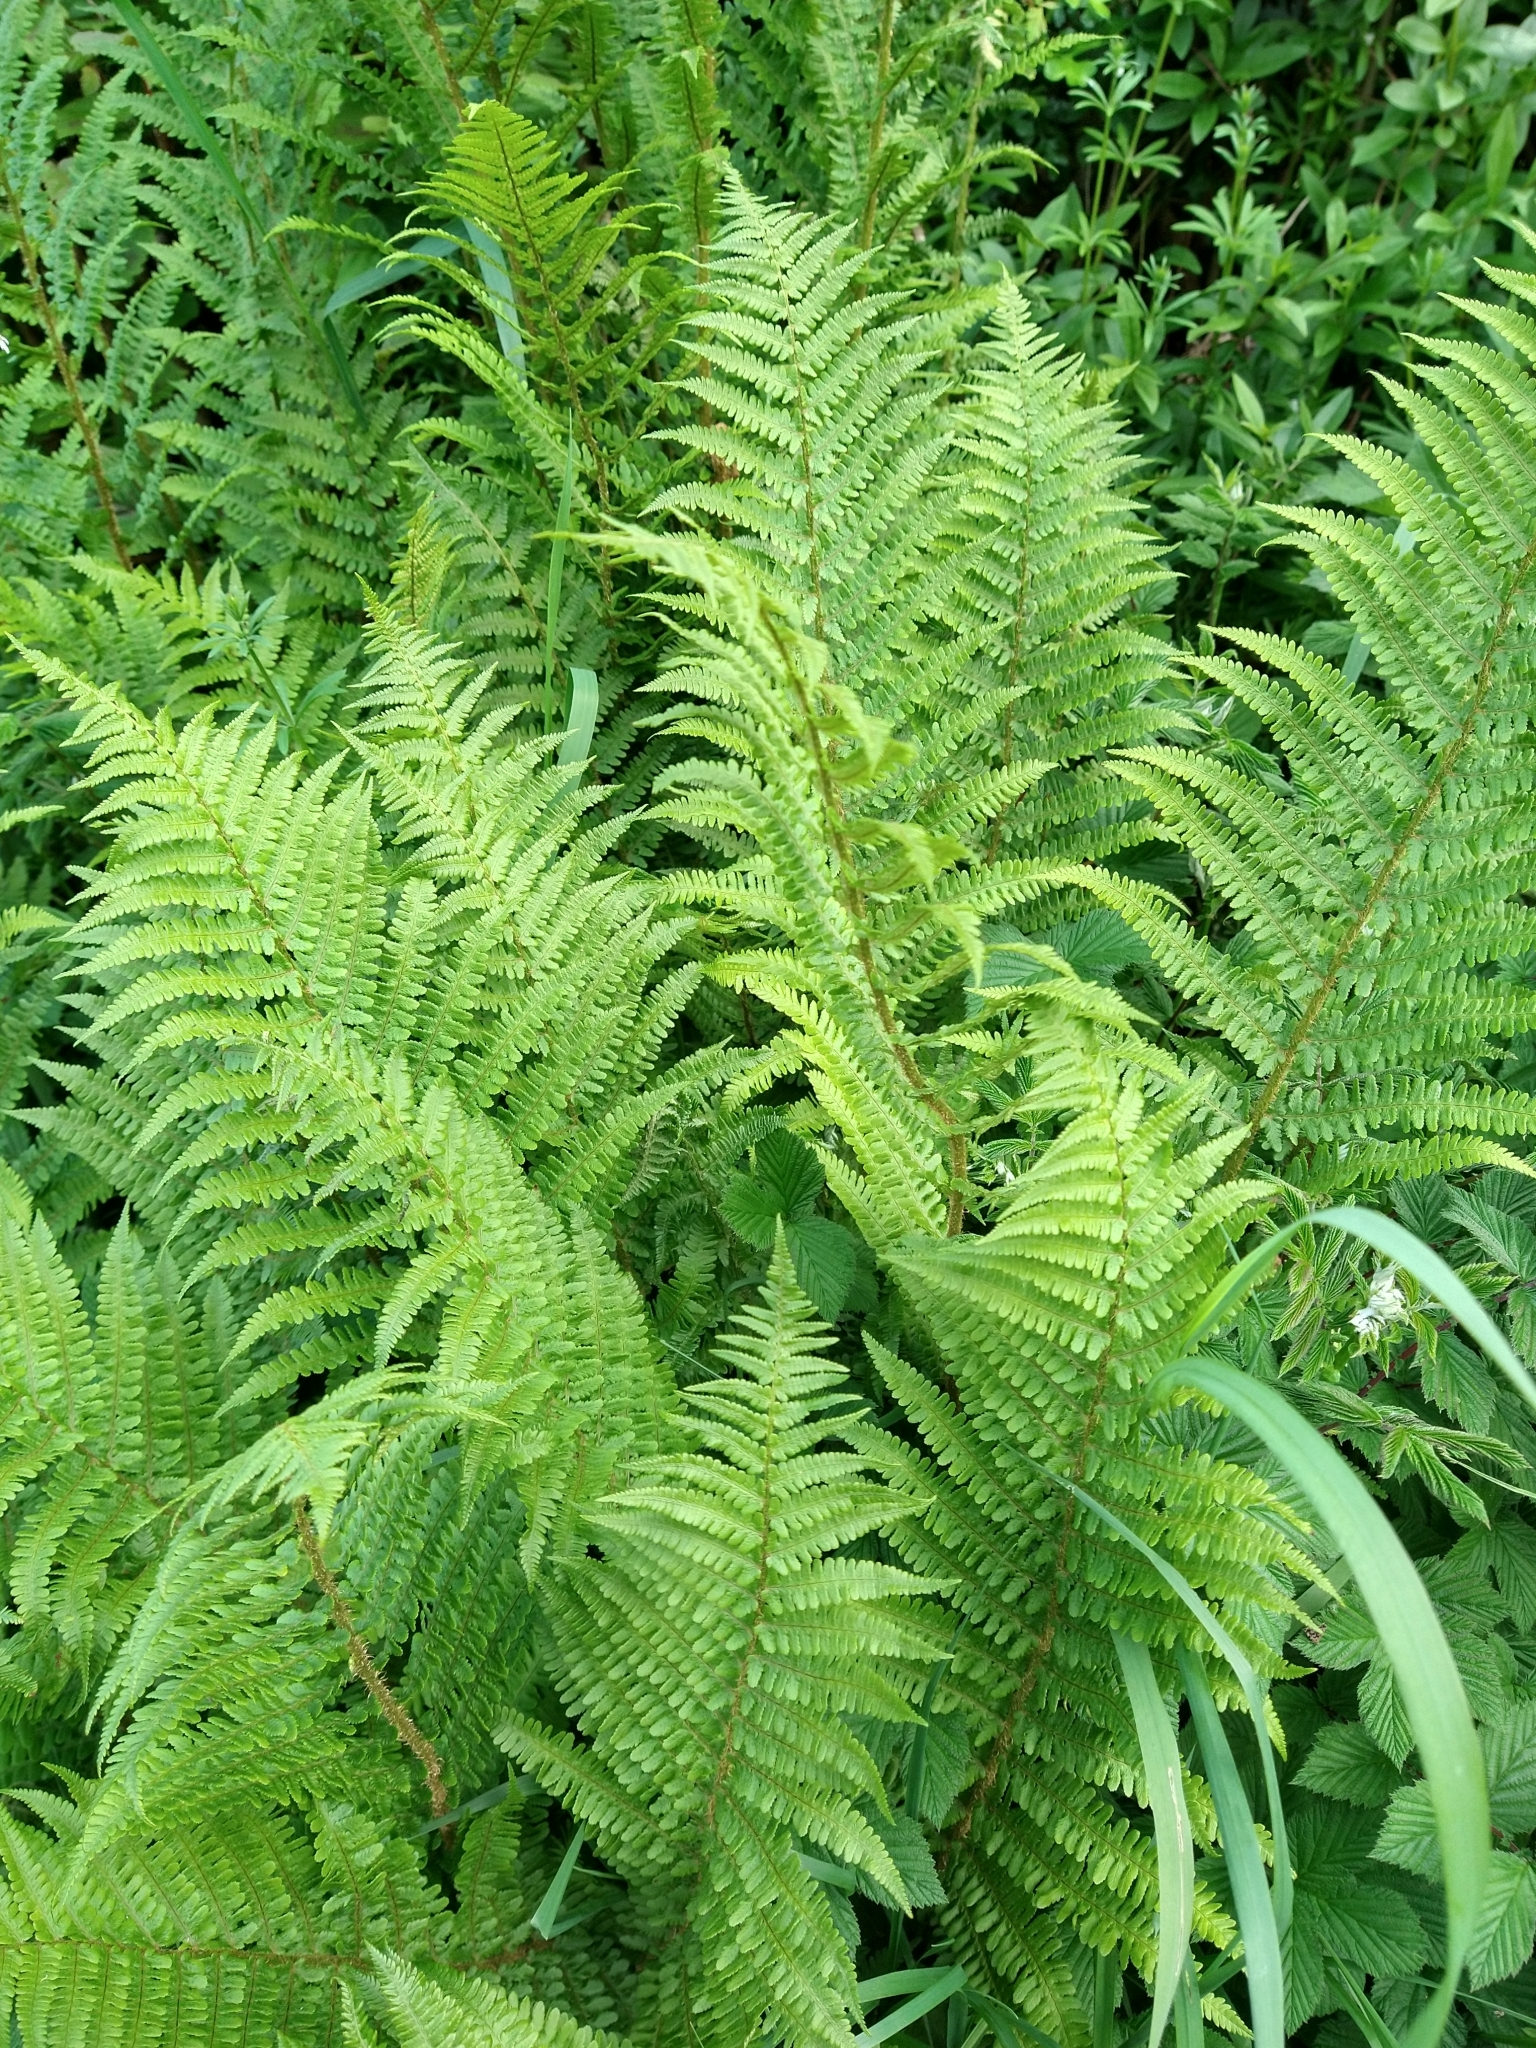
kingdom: Plantae
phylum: Tracheophyta
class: Polypodiopsida
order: Polypodiales
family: Dryopteridaceae
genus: Dryopteris
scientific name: Dryopteris filix-mas
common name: Male fern
